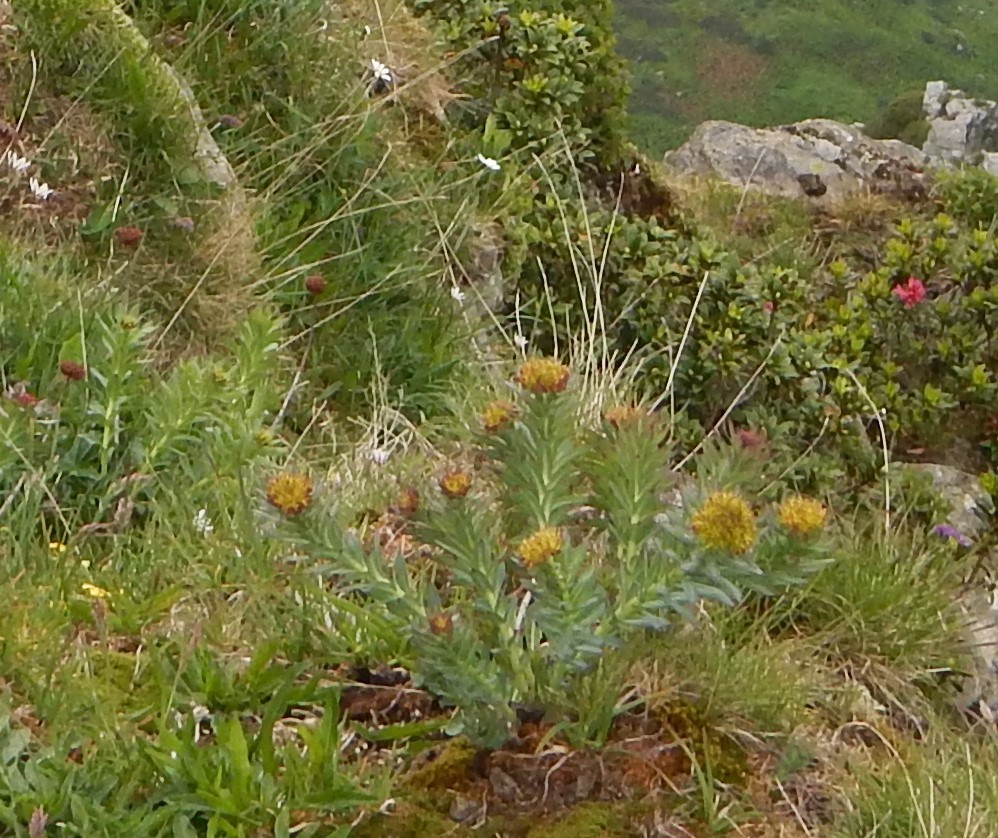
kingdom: Plantae
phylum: Tracheophyta
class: Magnoliopsida
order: Saxifragales
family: Crassulaceae
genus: Rhodiola
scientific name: Rhodiola rosea
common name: Roseroot
